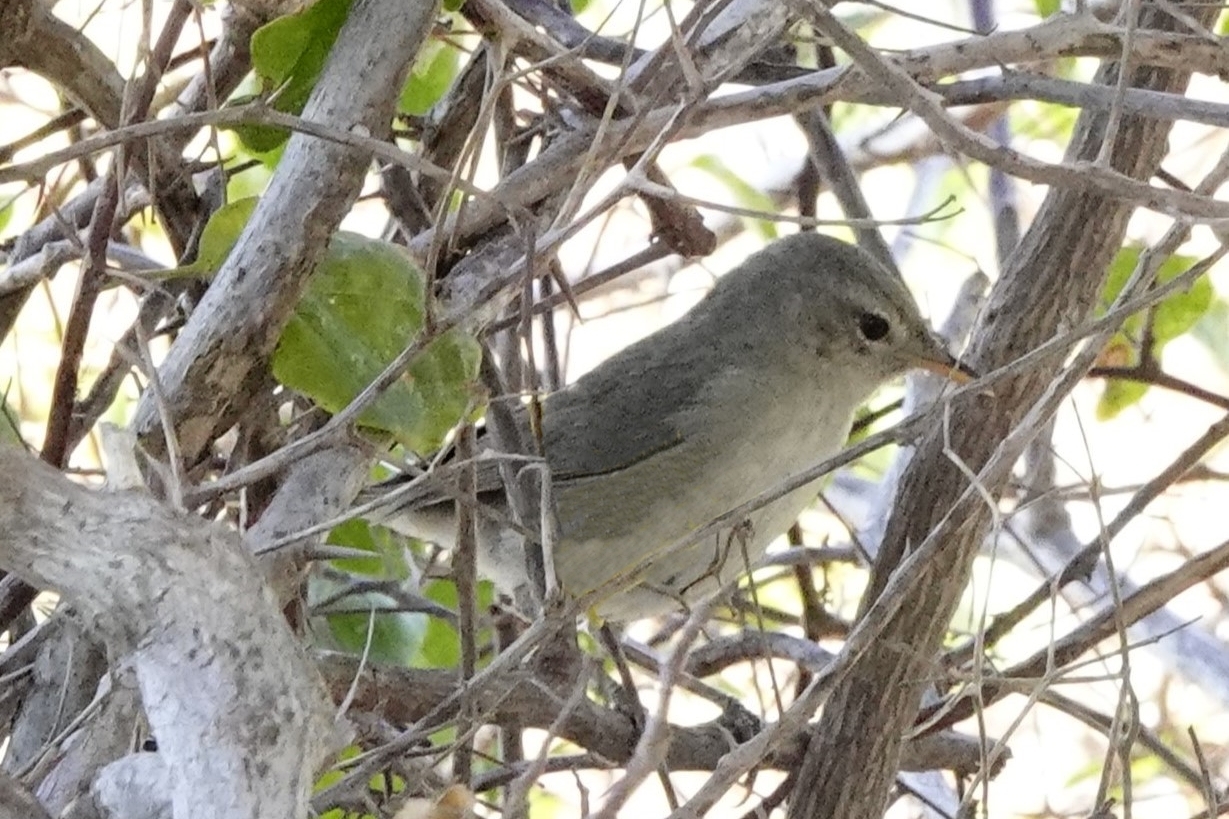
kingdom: Animalia
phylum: Chordata
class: Aves
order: Passeriformes
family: Acrocephalidae
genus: Nesillas
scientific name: Nesillas lantzii
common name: Subdesert brush-warbler
